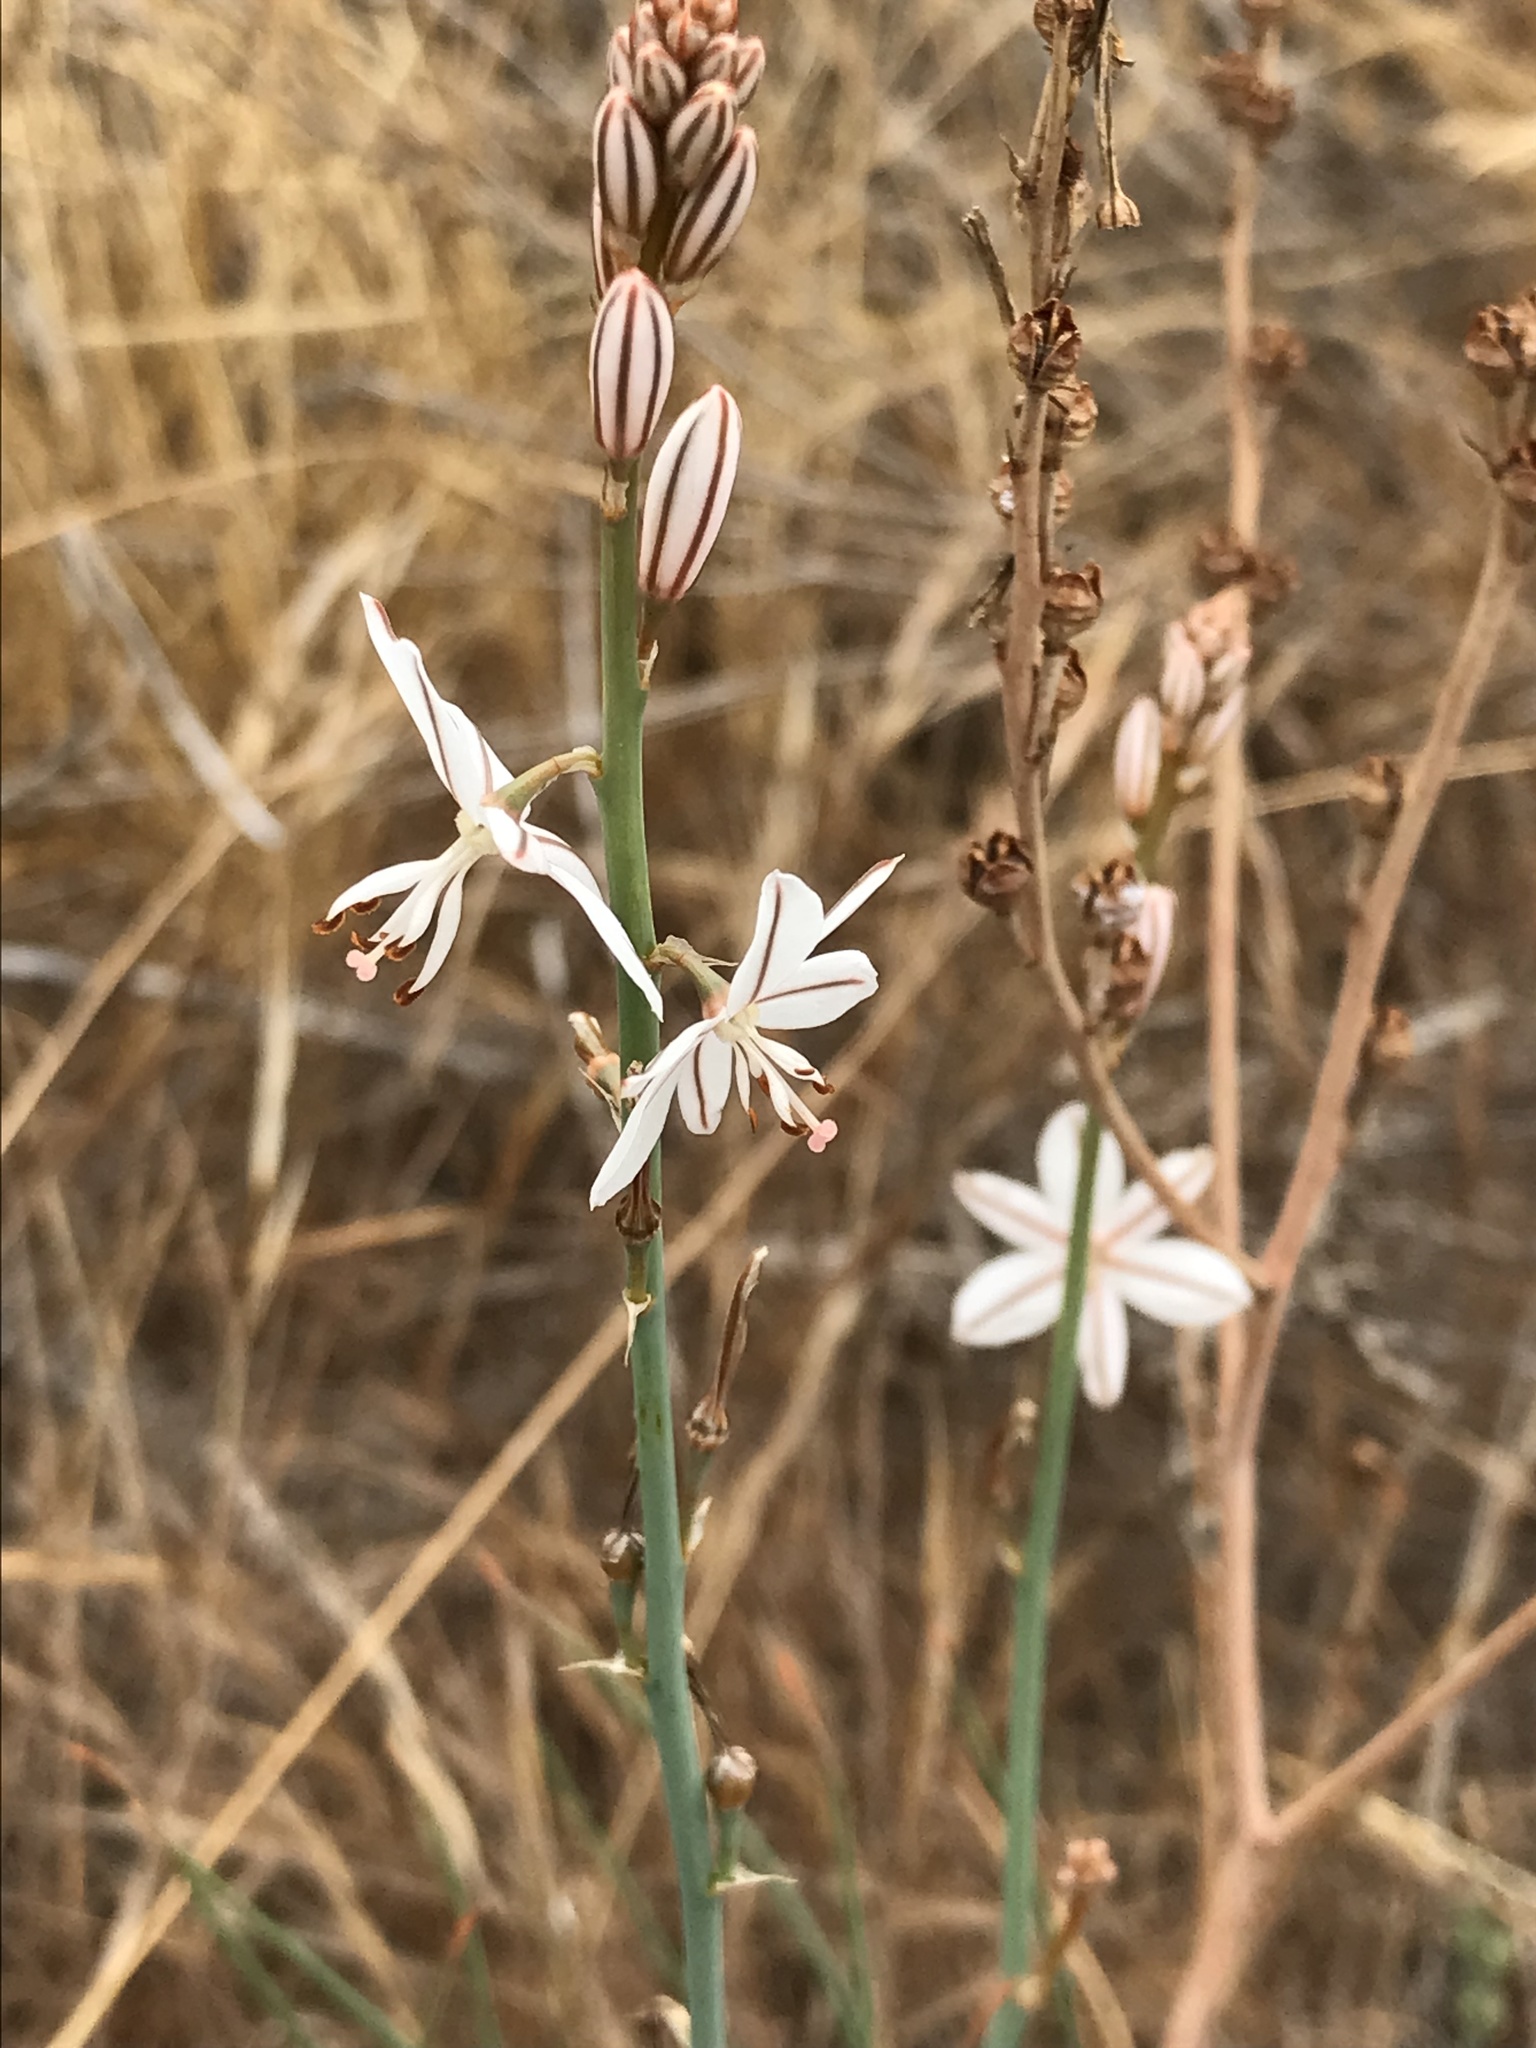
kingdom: Plantae
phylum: Tracheophyta
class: Liliopsida
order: Asparagales
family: Asphodelaceae
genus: Asphodelus
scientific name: Asphodelus fistulosus
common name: Onionweed
